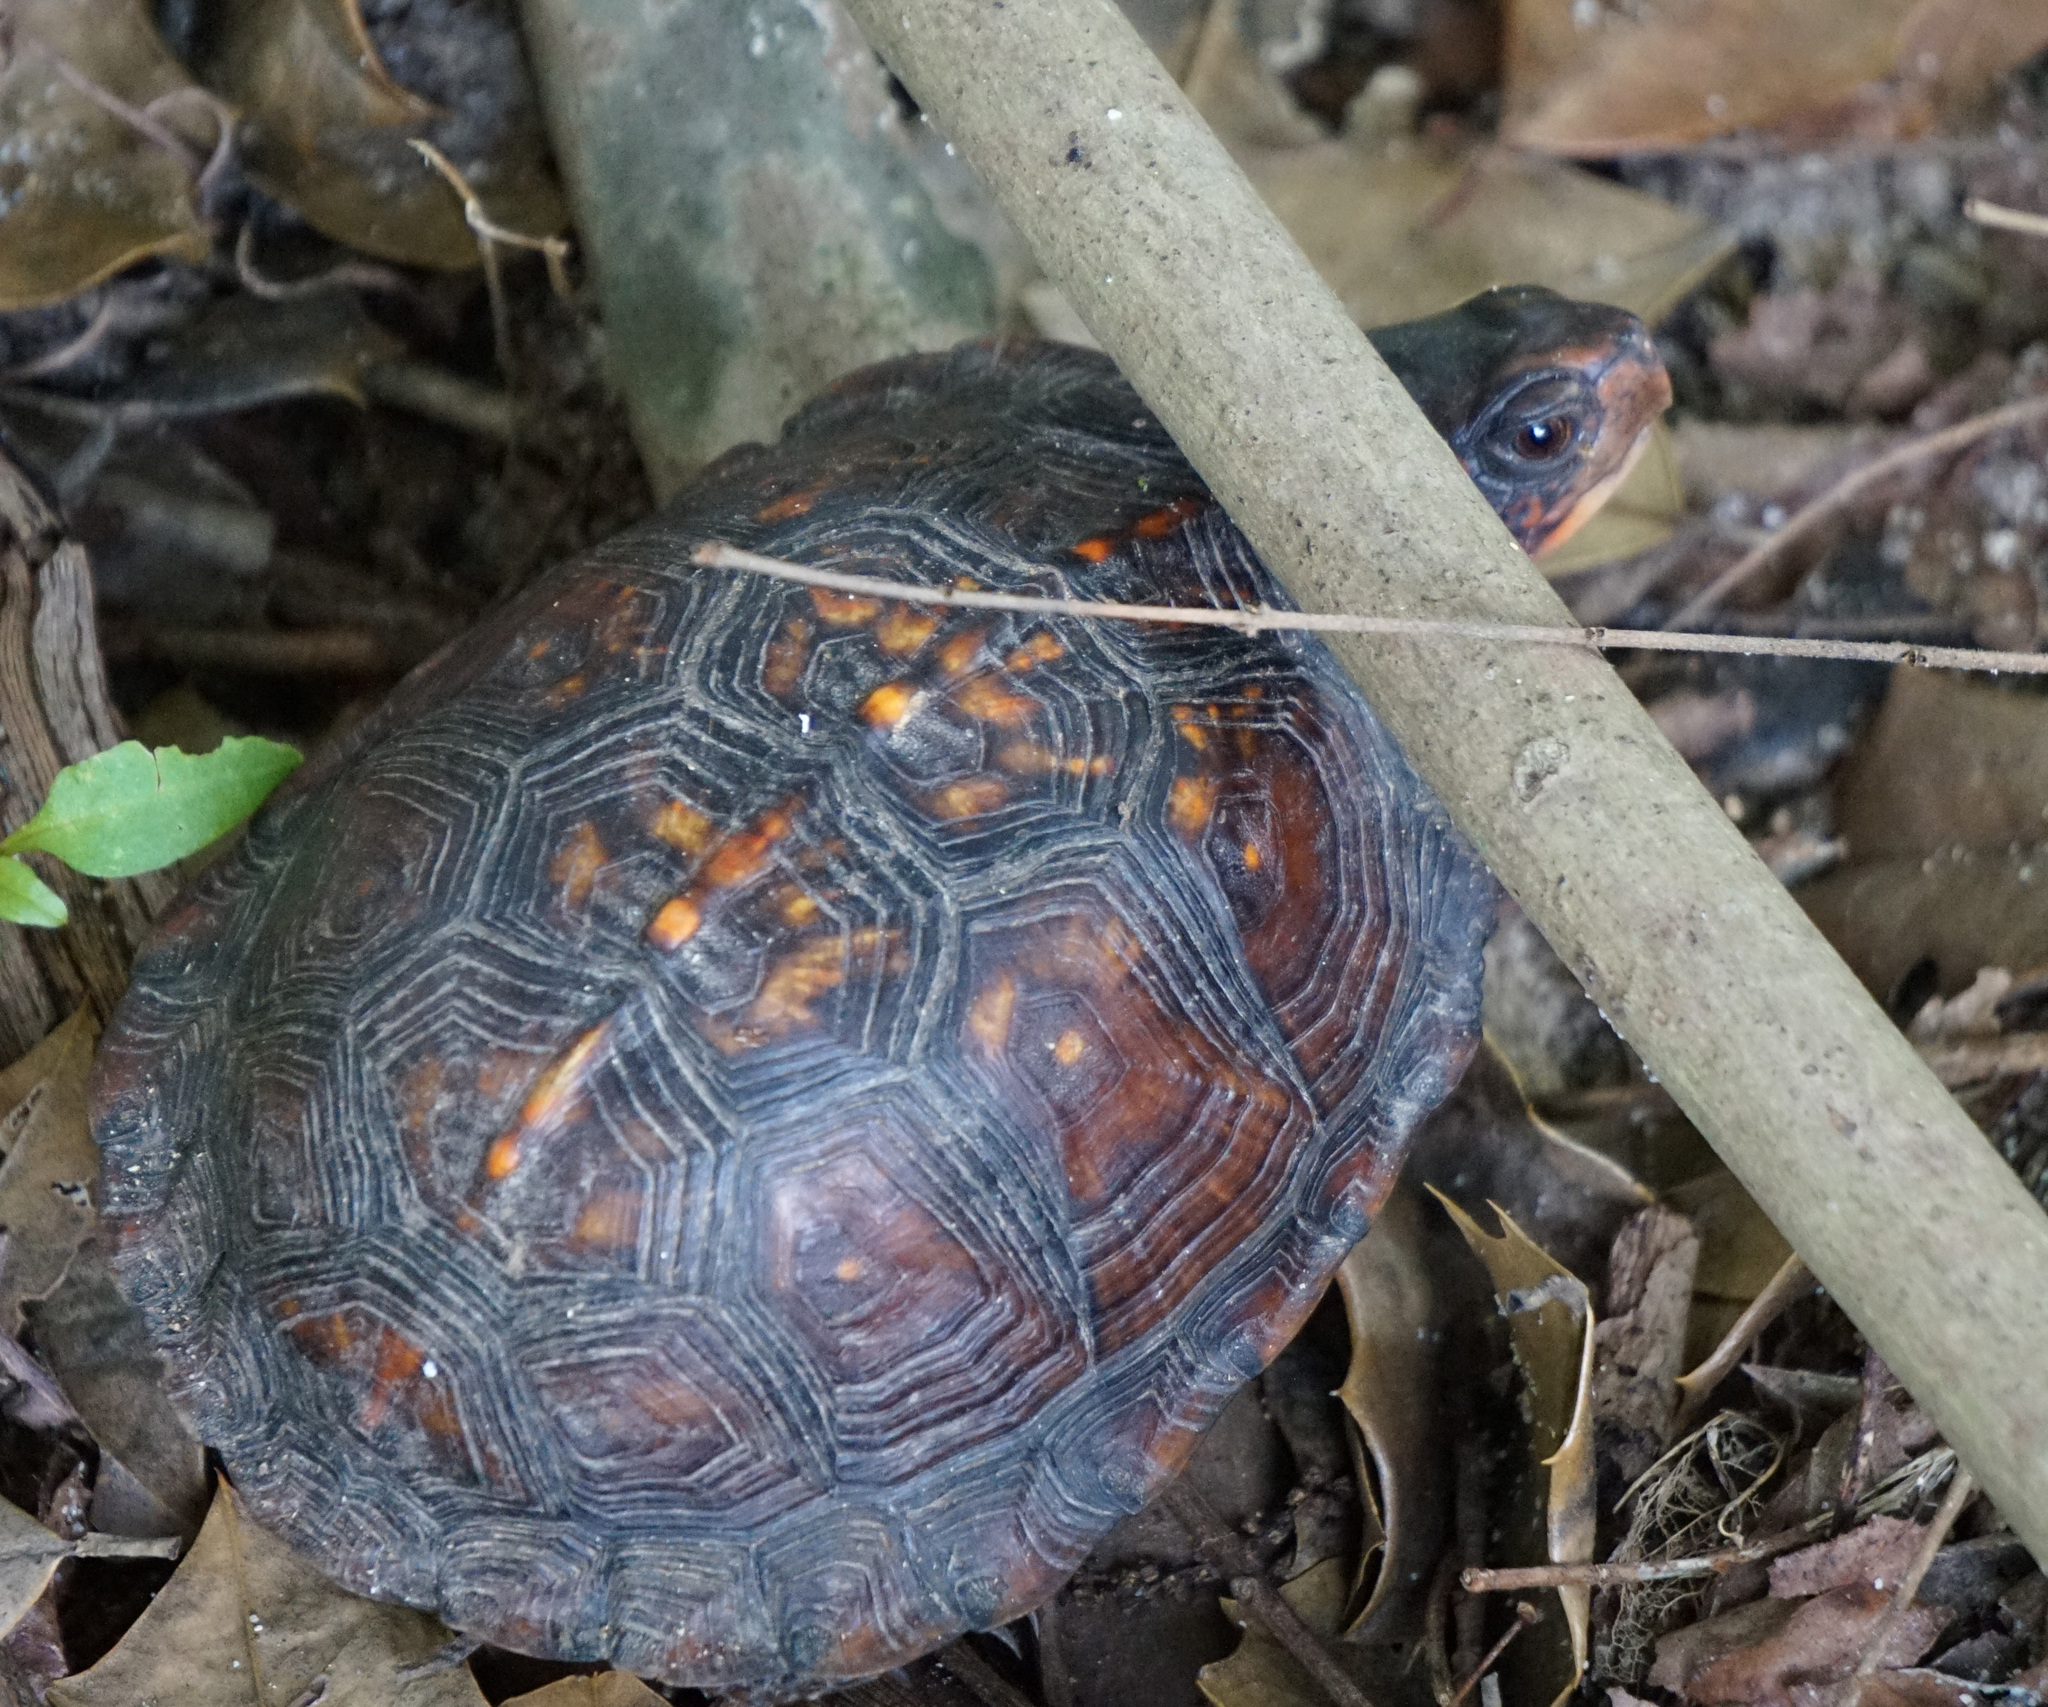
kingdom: Animalia
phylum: Chordata
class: Testudines
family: Emydidae
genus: Terrapene
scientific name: Terrapene carolina
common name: Common box turtle
